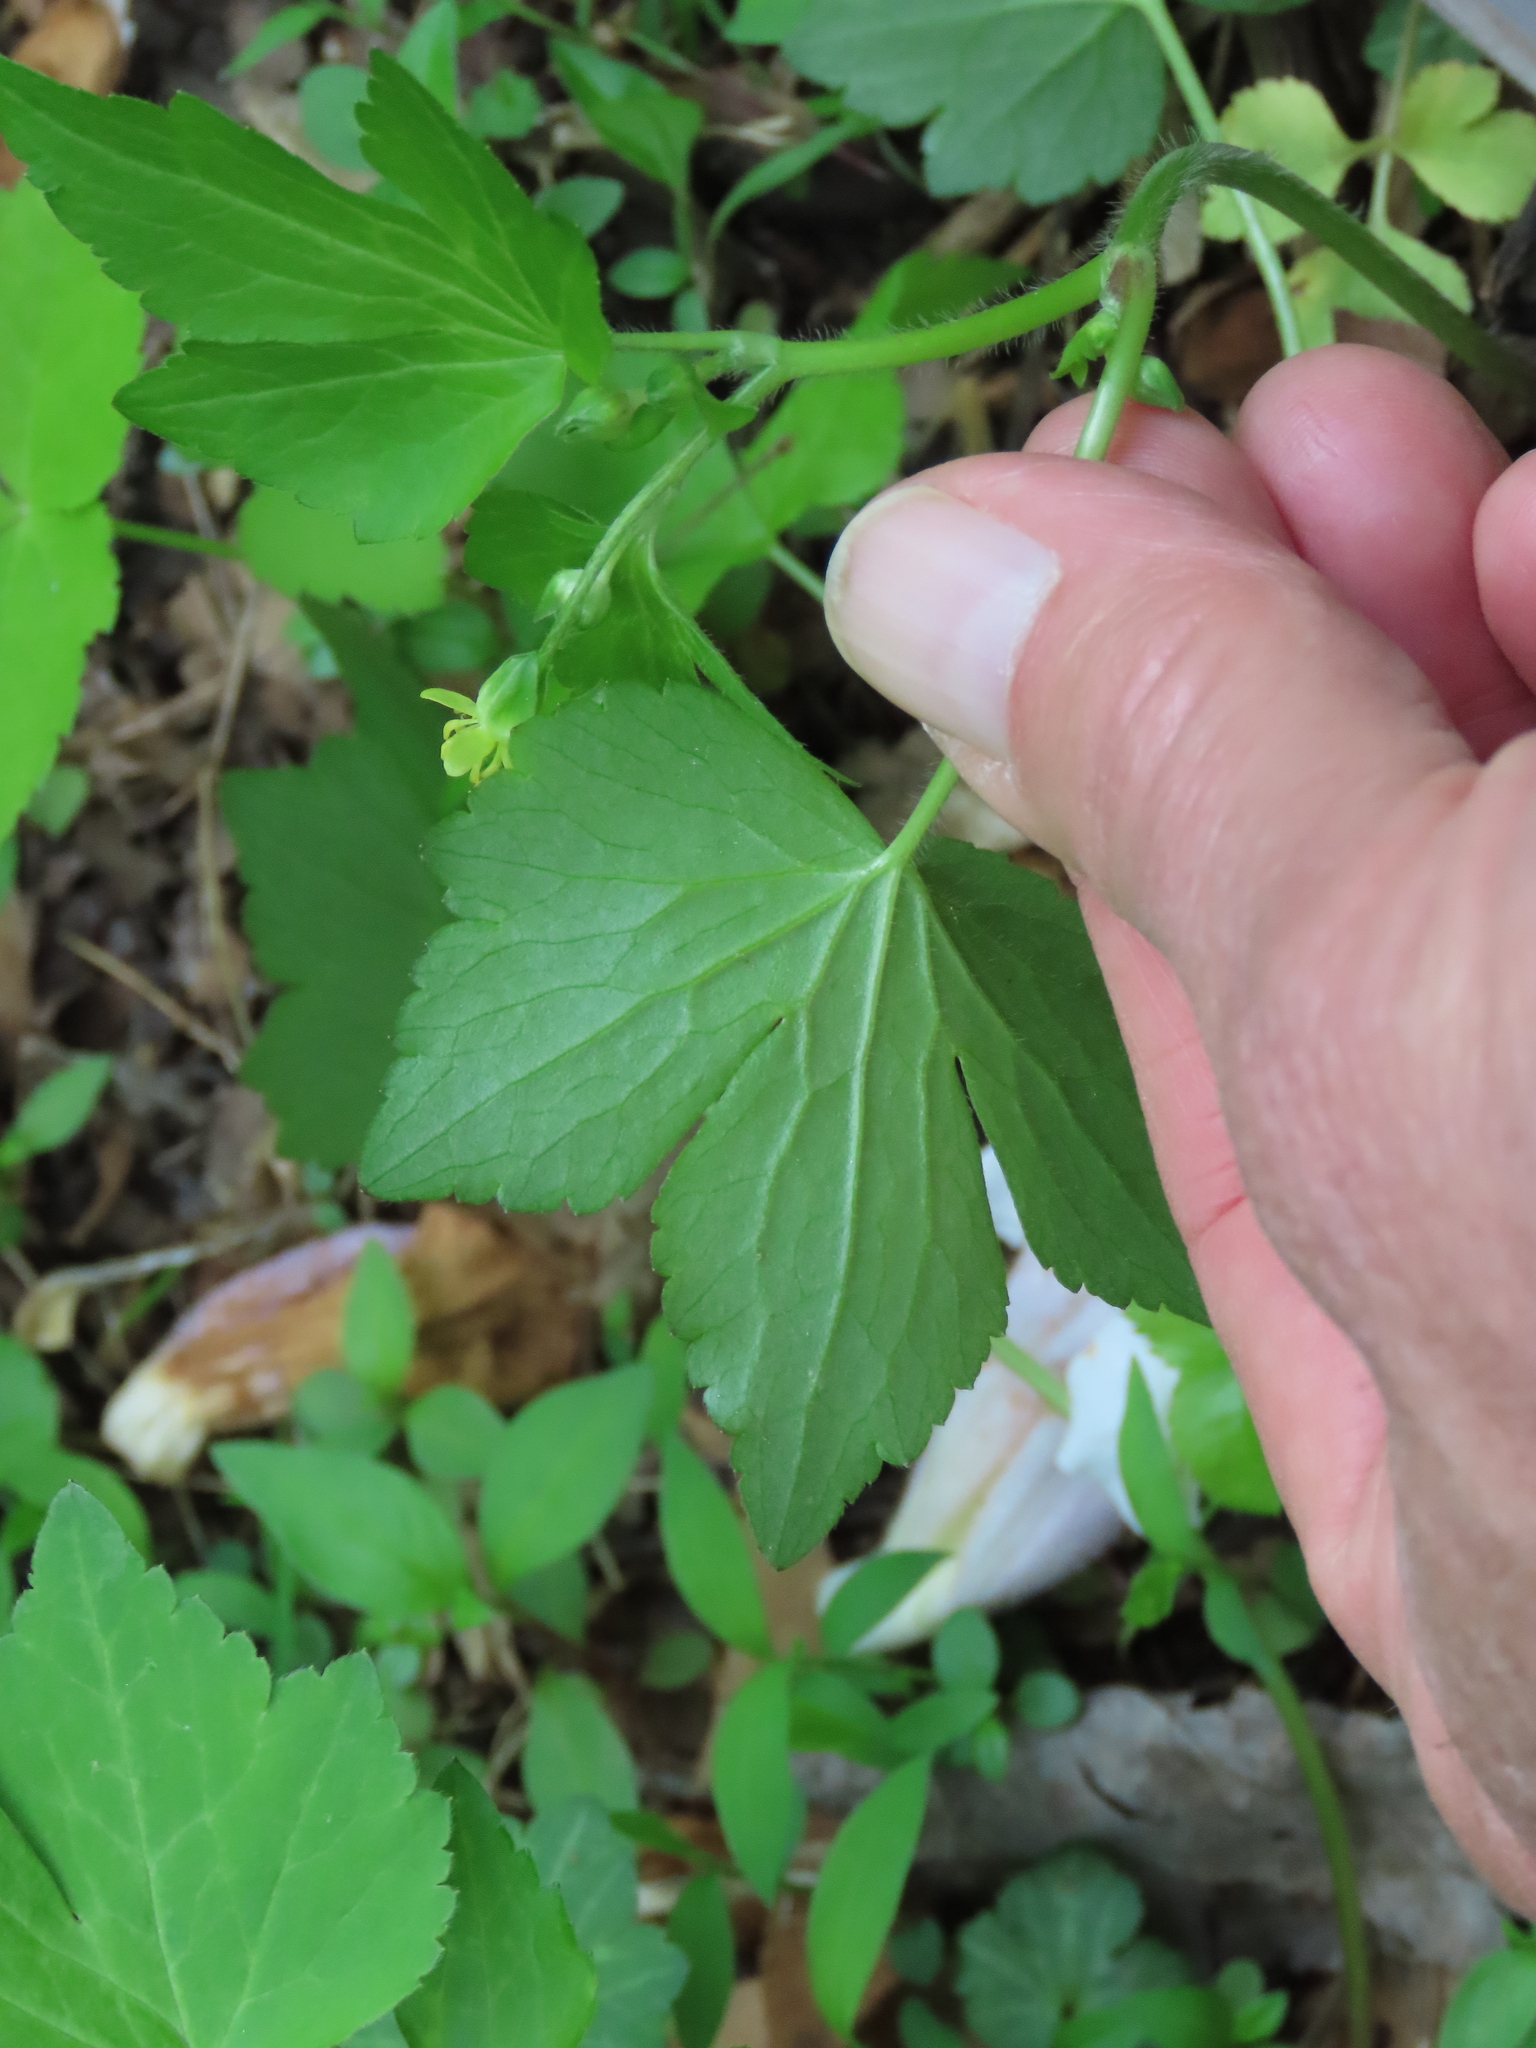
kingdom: Plantae
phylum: Tracheophyta
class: Magnoliopsida
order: Ranunculales
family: Ranunculaceae
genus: Ranunculus
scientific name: Ranunculus recurvatus
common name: Blisterwort
